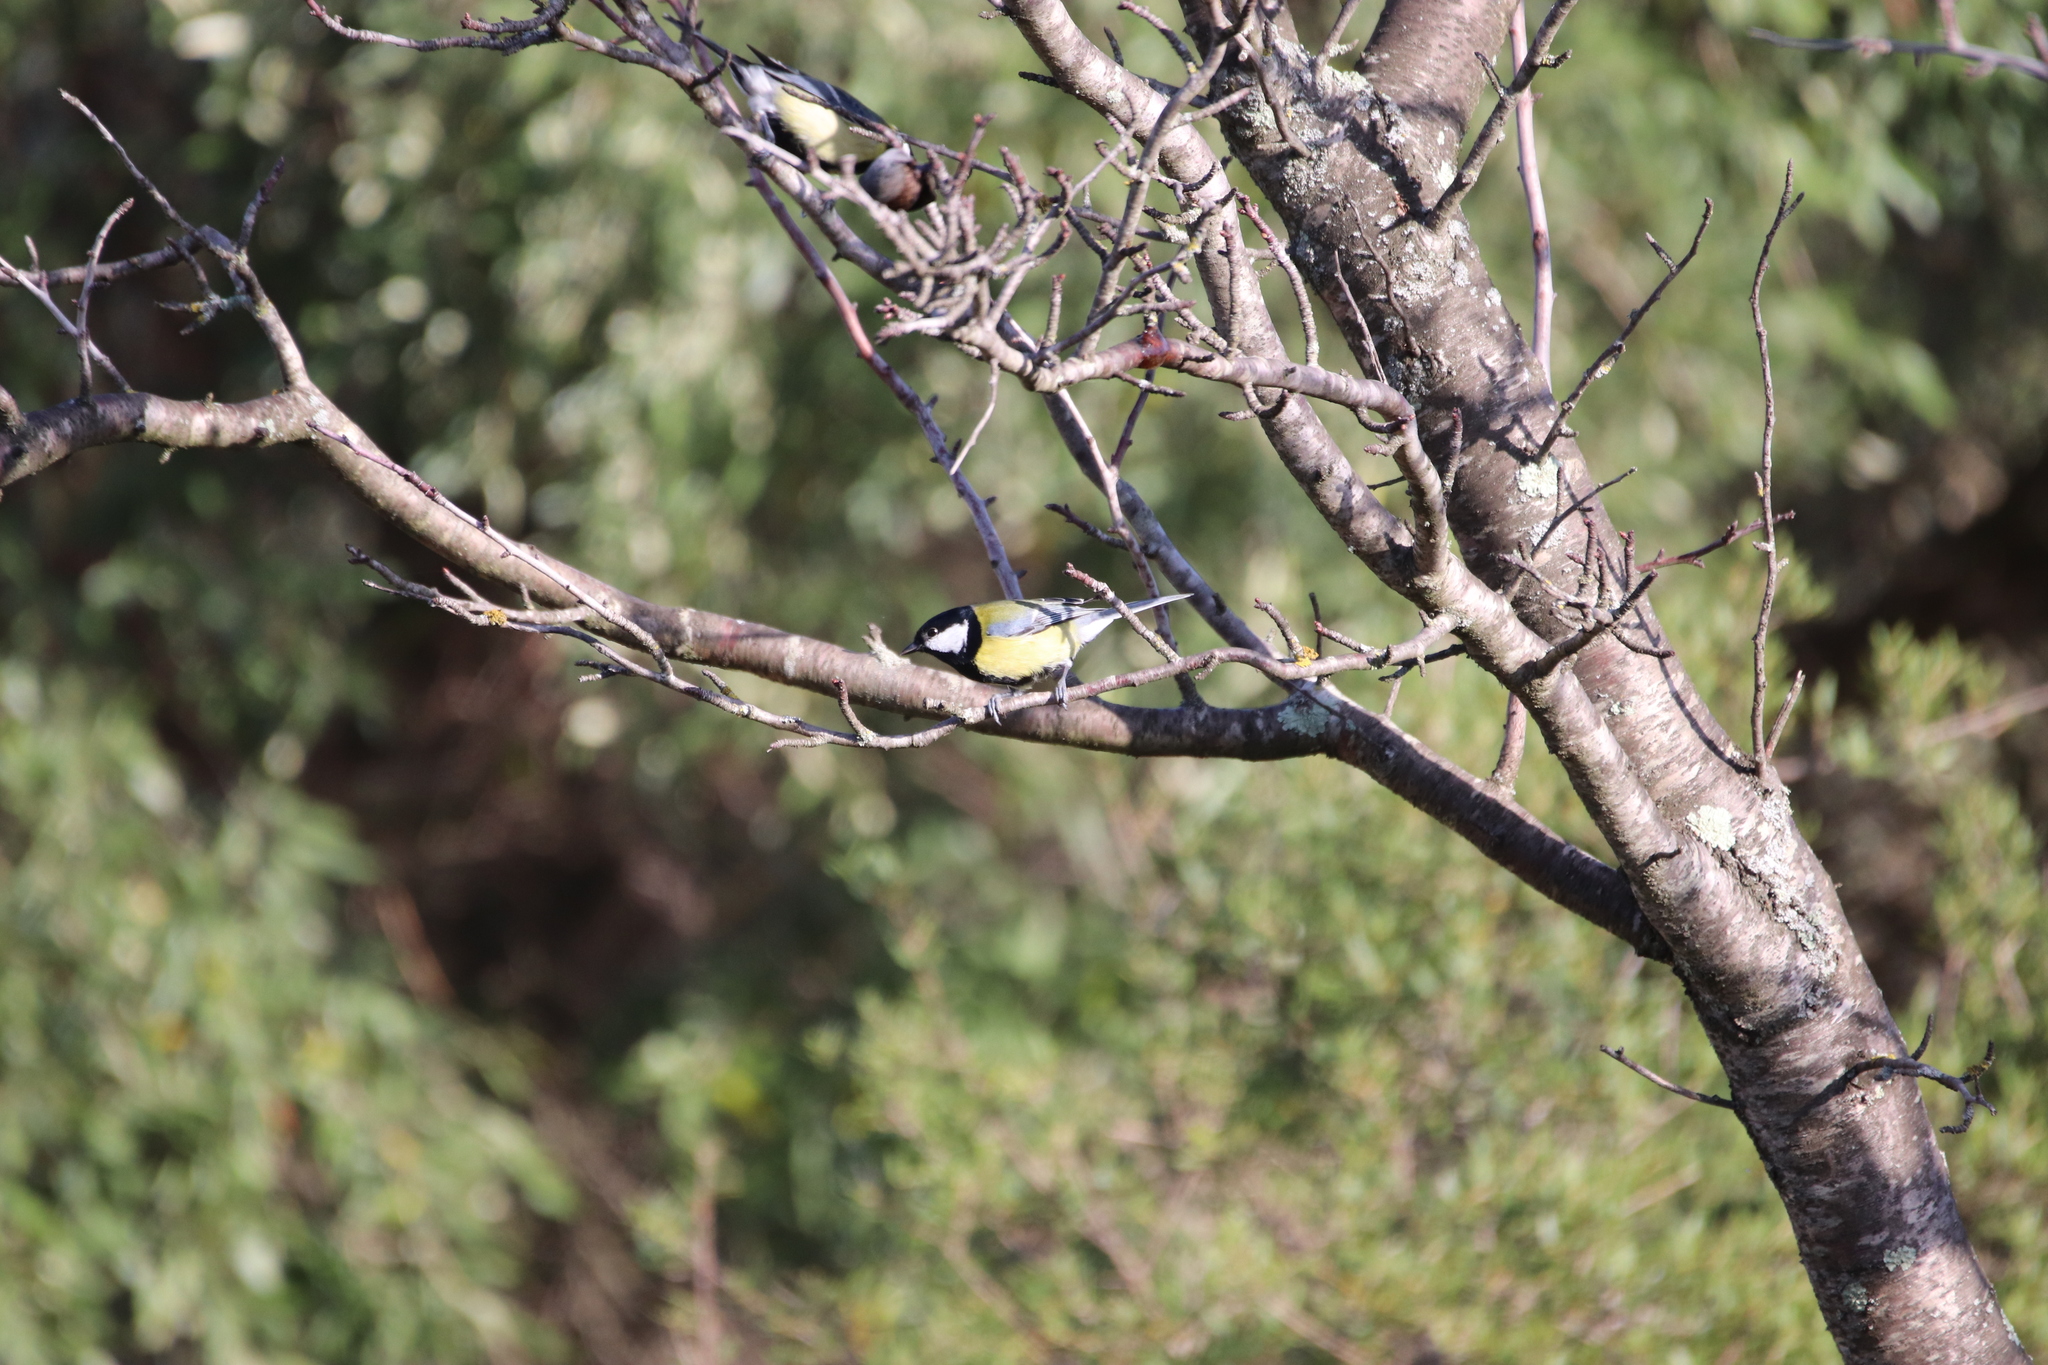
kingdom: Animalia
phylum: Chordata
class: Aves
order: Passeriformes
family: Paridae
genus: Parus
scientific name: Parus major
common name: Great tit
